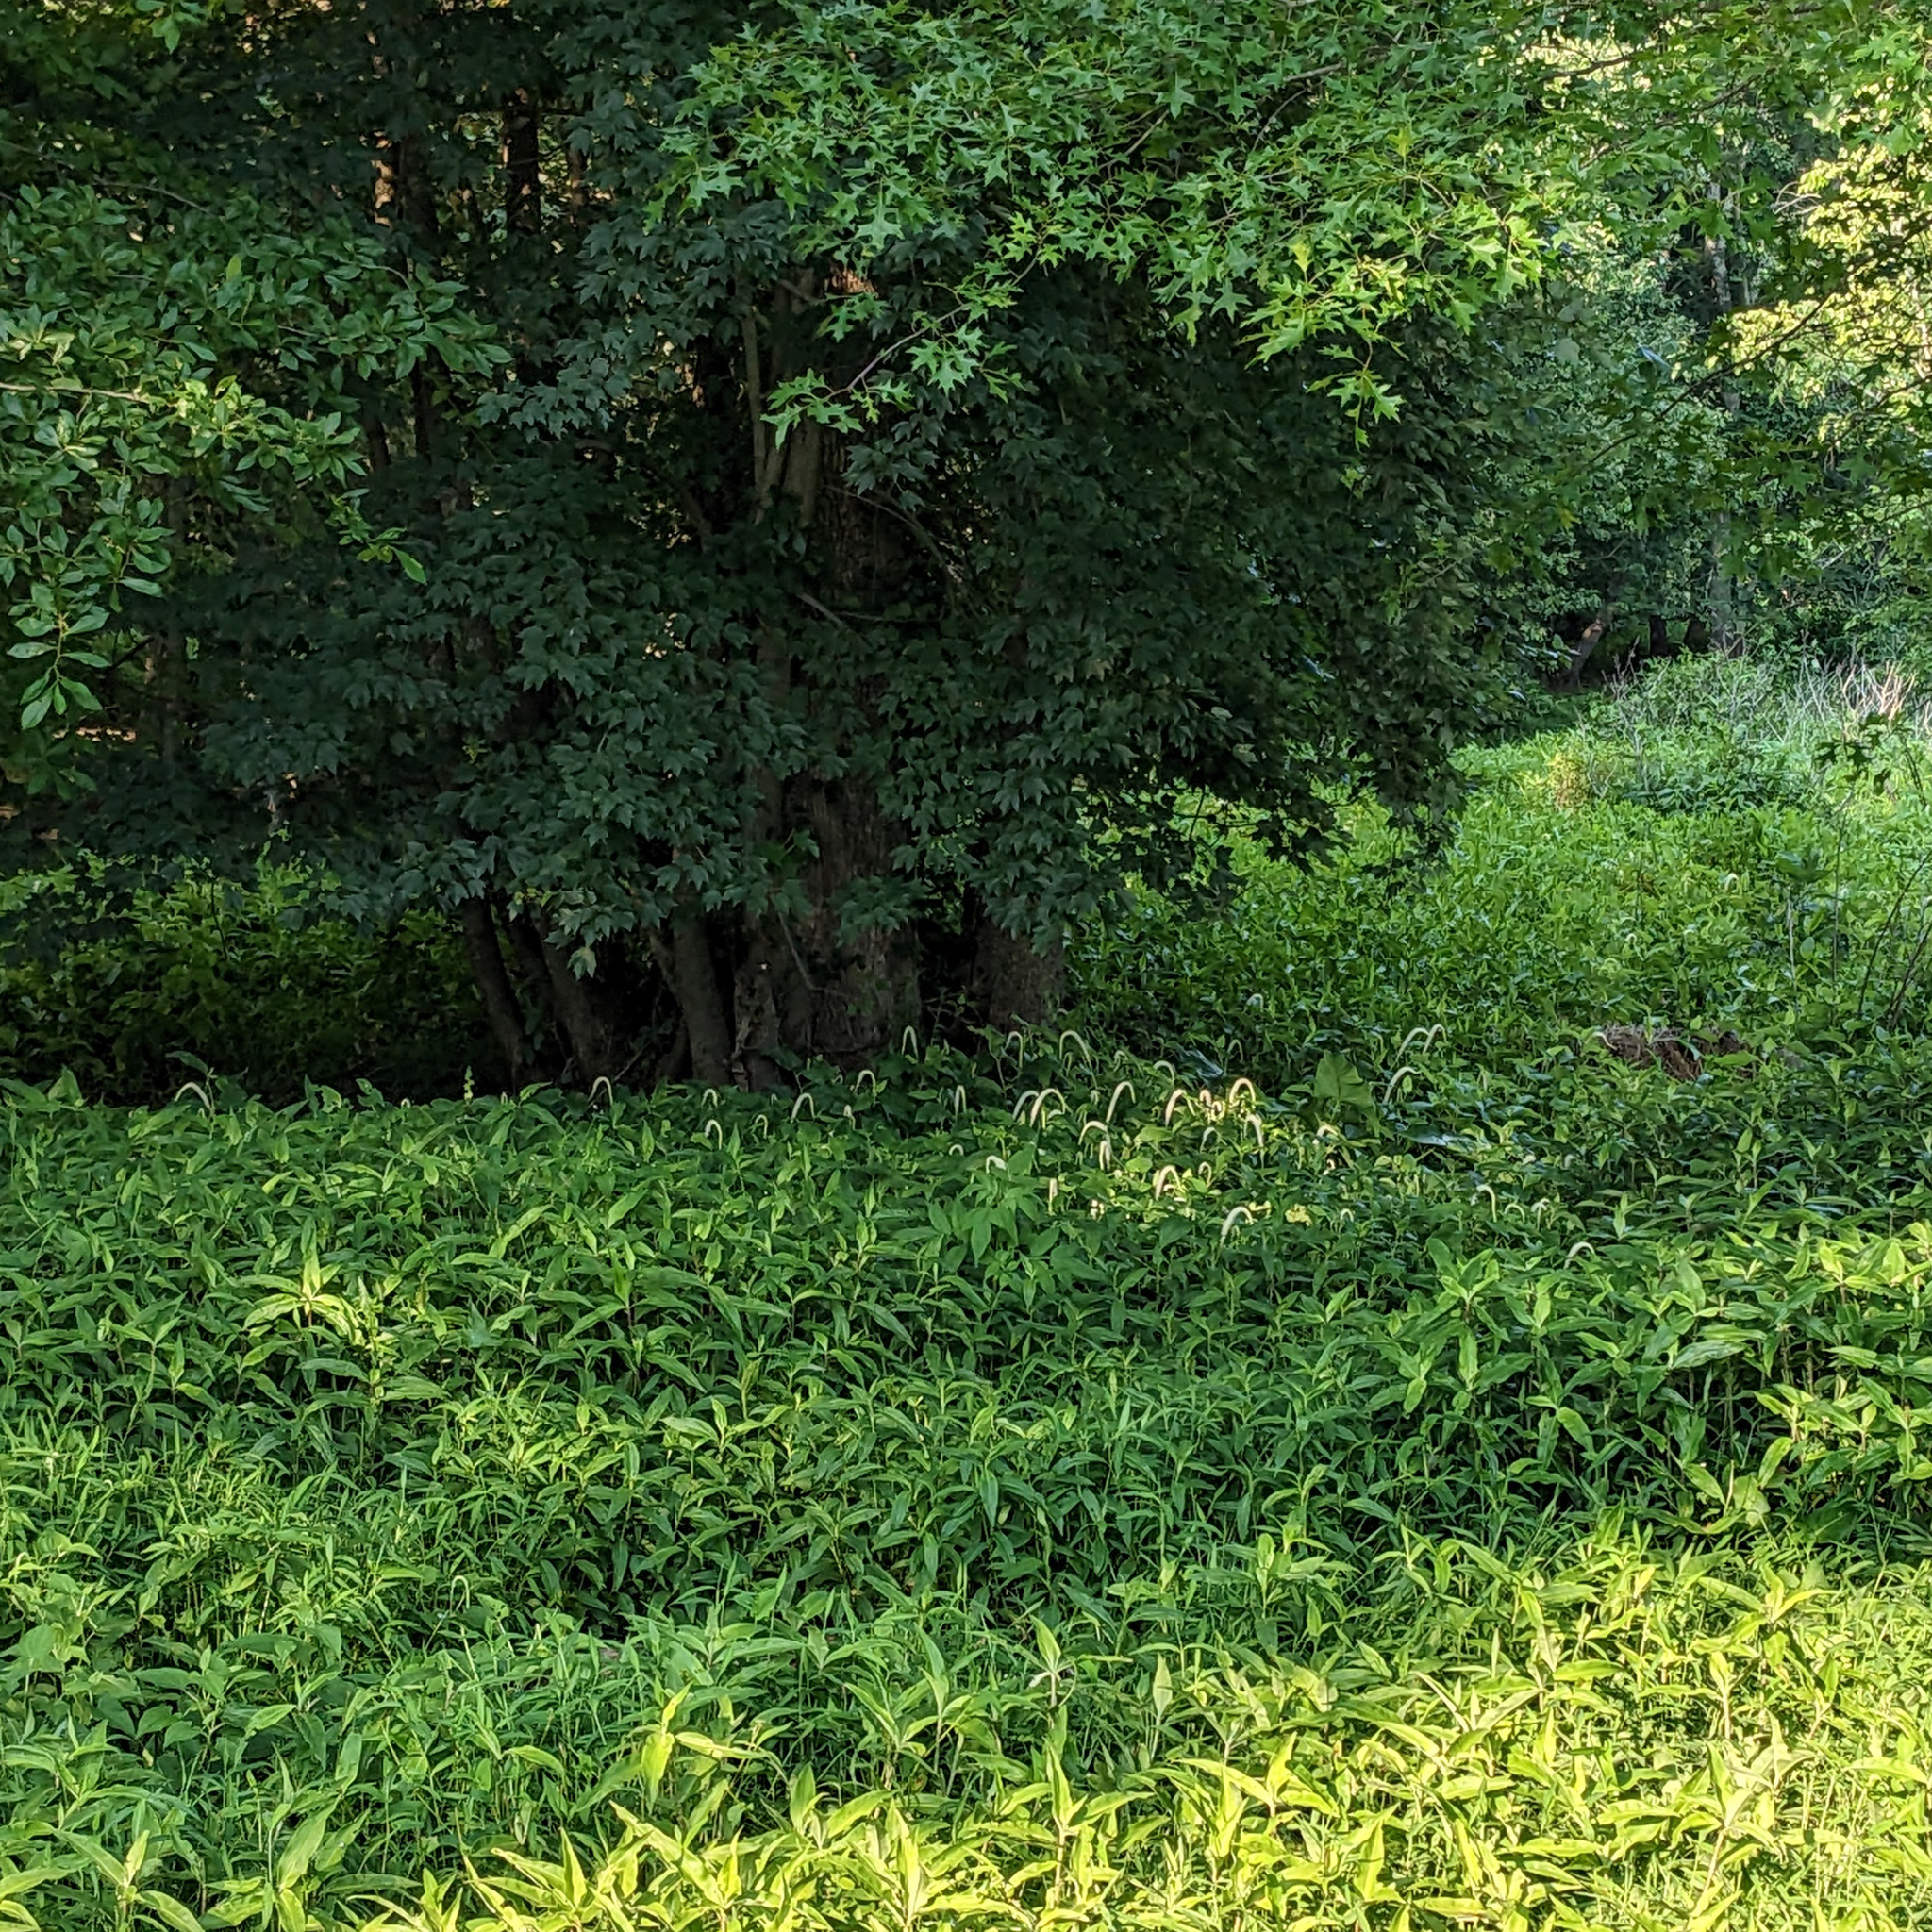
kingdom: Plantae
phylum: Tracheophyta
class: Magnoliopsida
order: Piperales
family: Saururaceae
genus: Saururus
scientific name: Saururus cernuus
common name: Lizard's-tail
